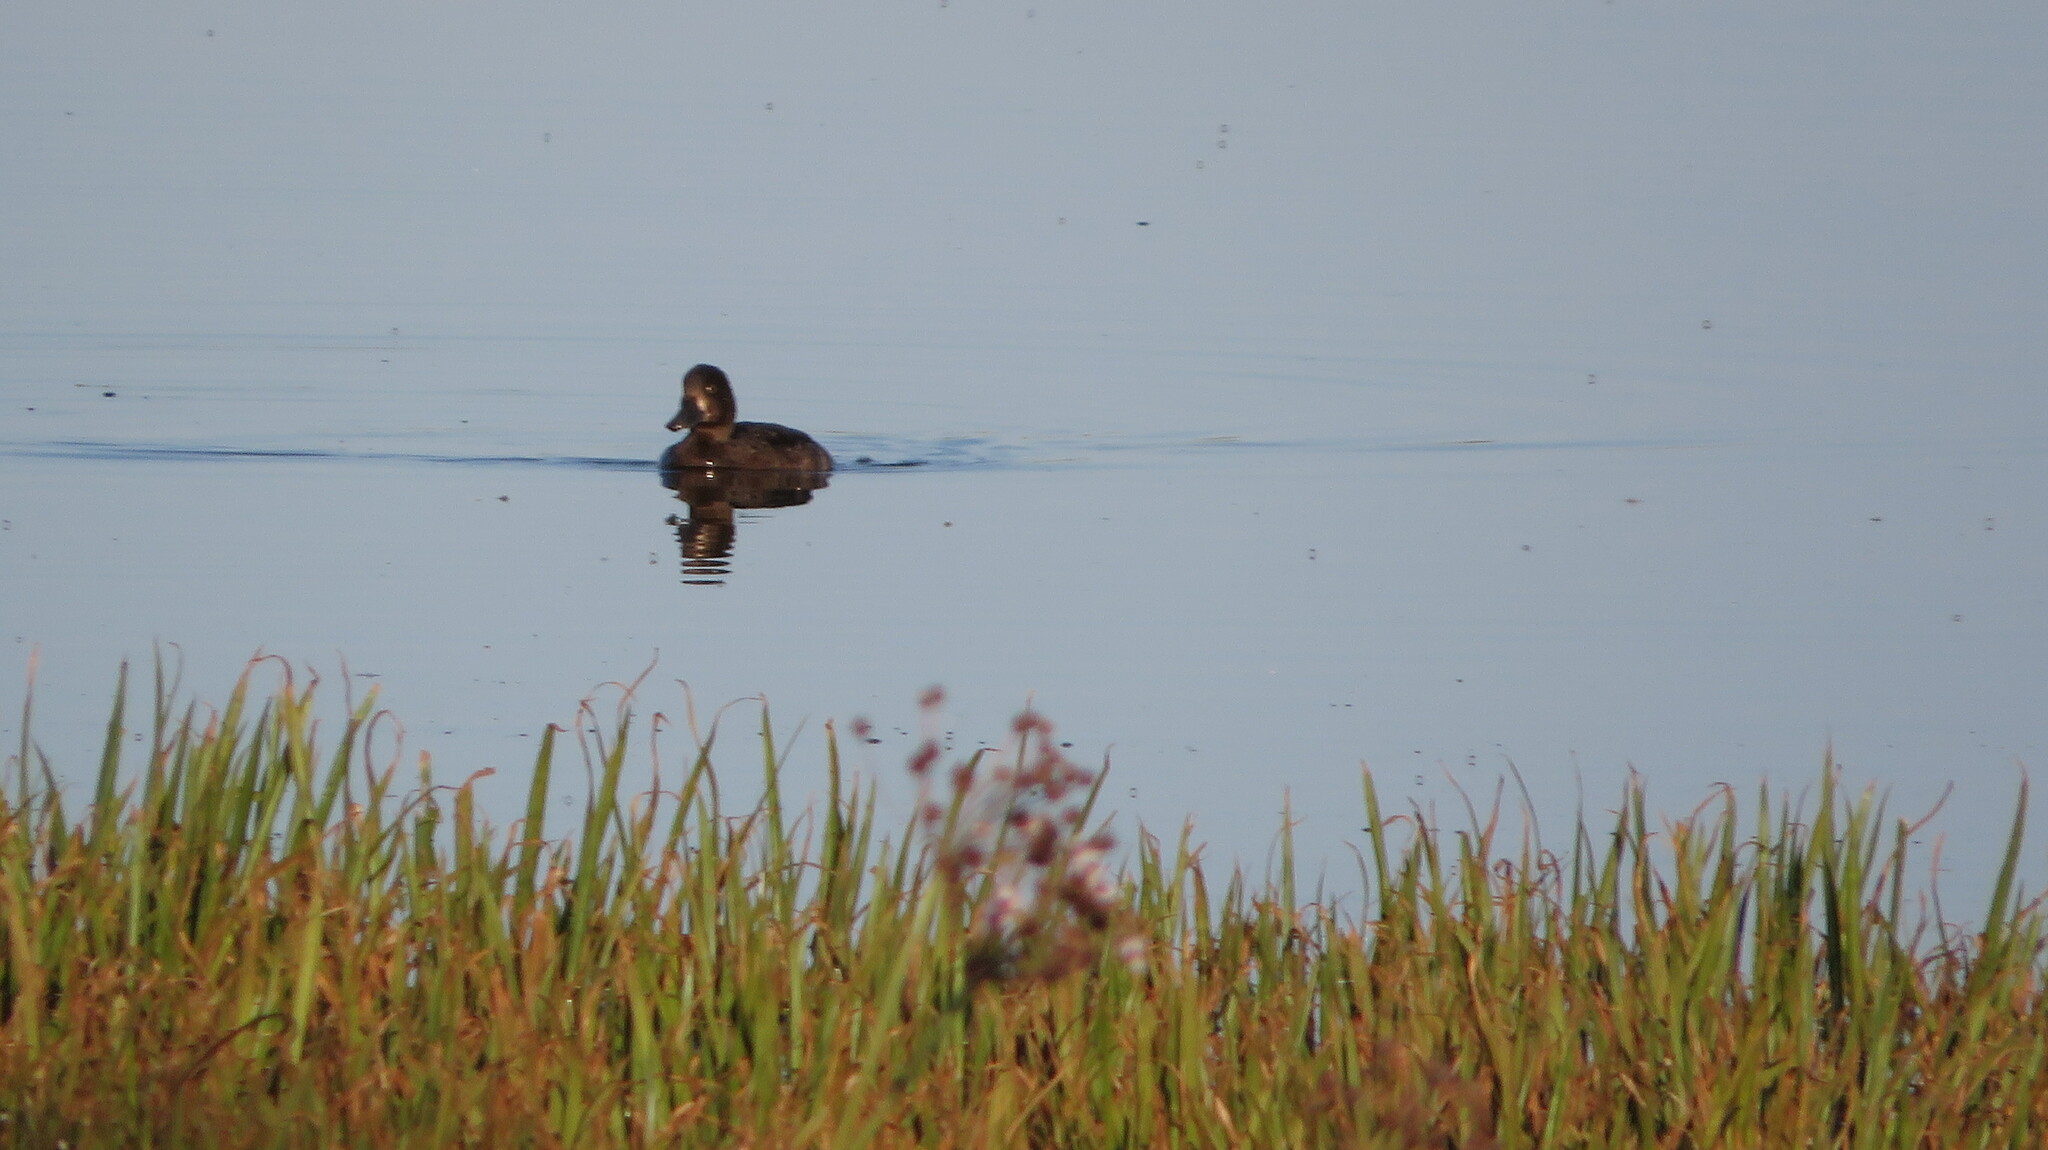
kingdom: Animalia
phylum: Chordata
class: Aves
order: Anseriformes
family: Anatidae
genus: Aythya
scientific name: Aythya fuligula
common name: Tufted duck
